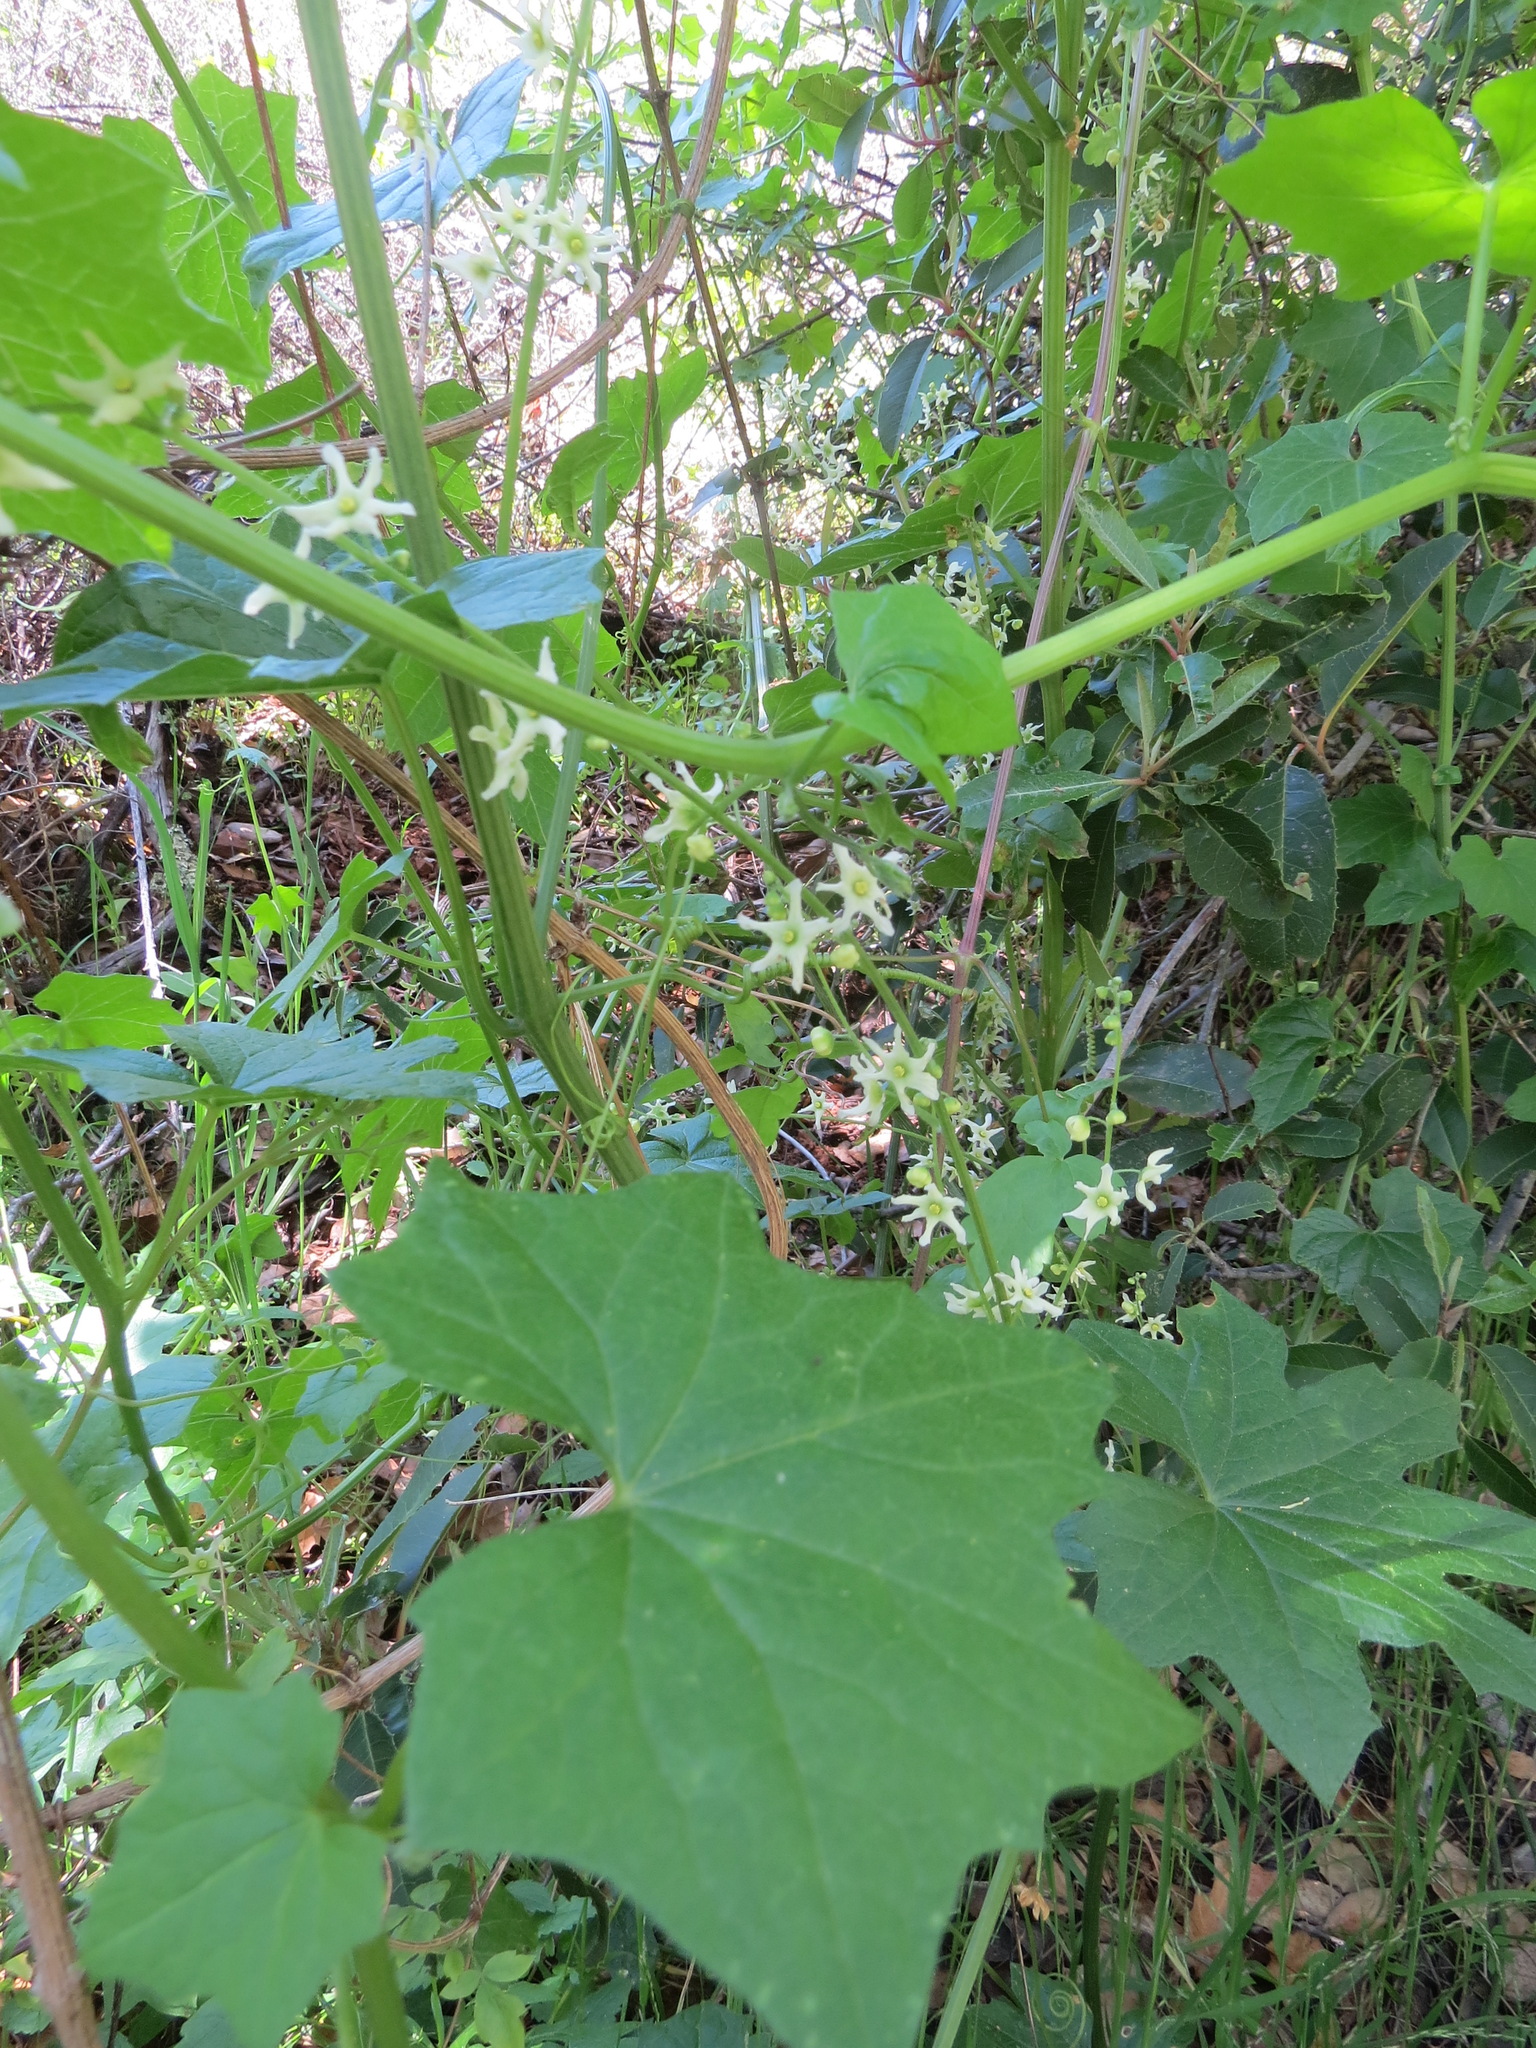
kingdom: Plantae
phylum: Tracheophyta
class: Magnoliopsida
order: Cucurbitales
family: Cucurbitaceae
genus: Marah
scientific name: Marah fabacea
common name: California manroot
